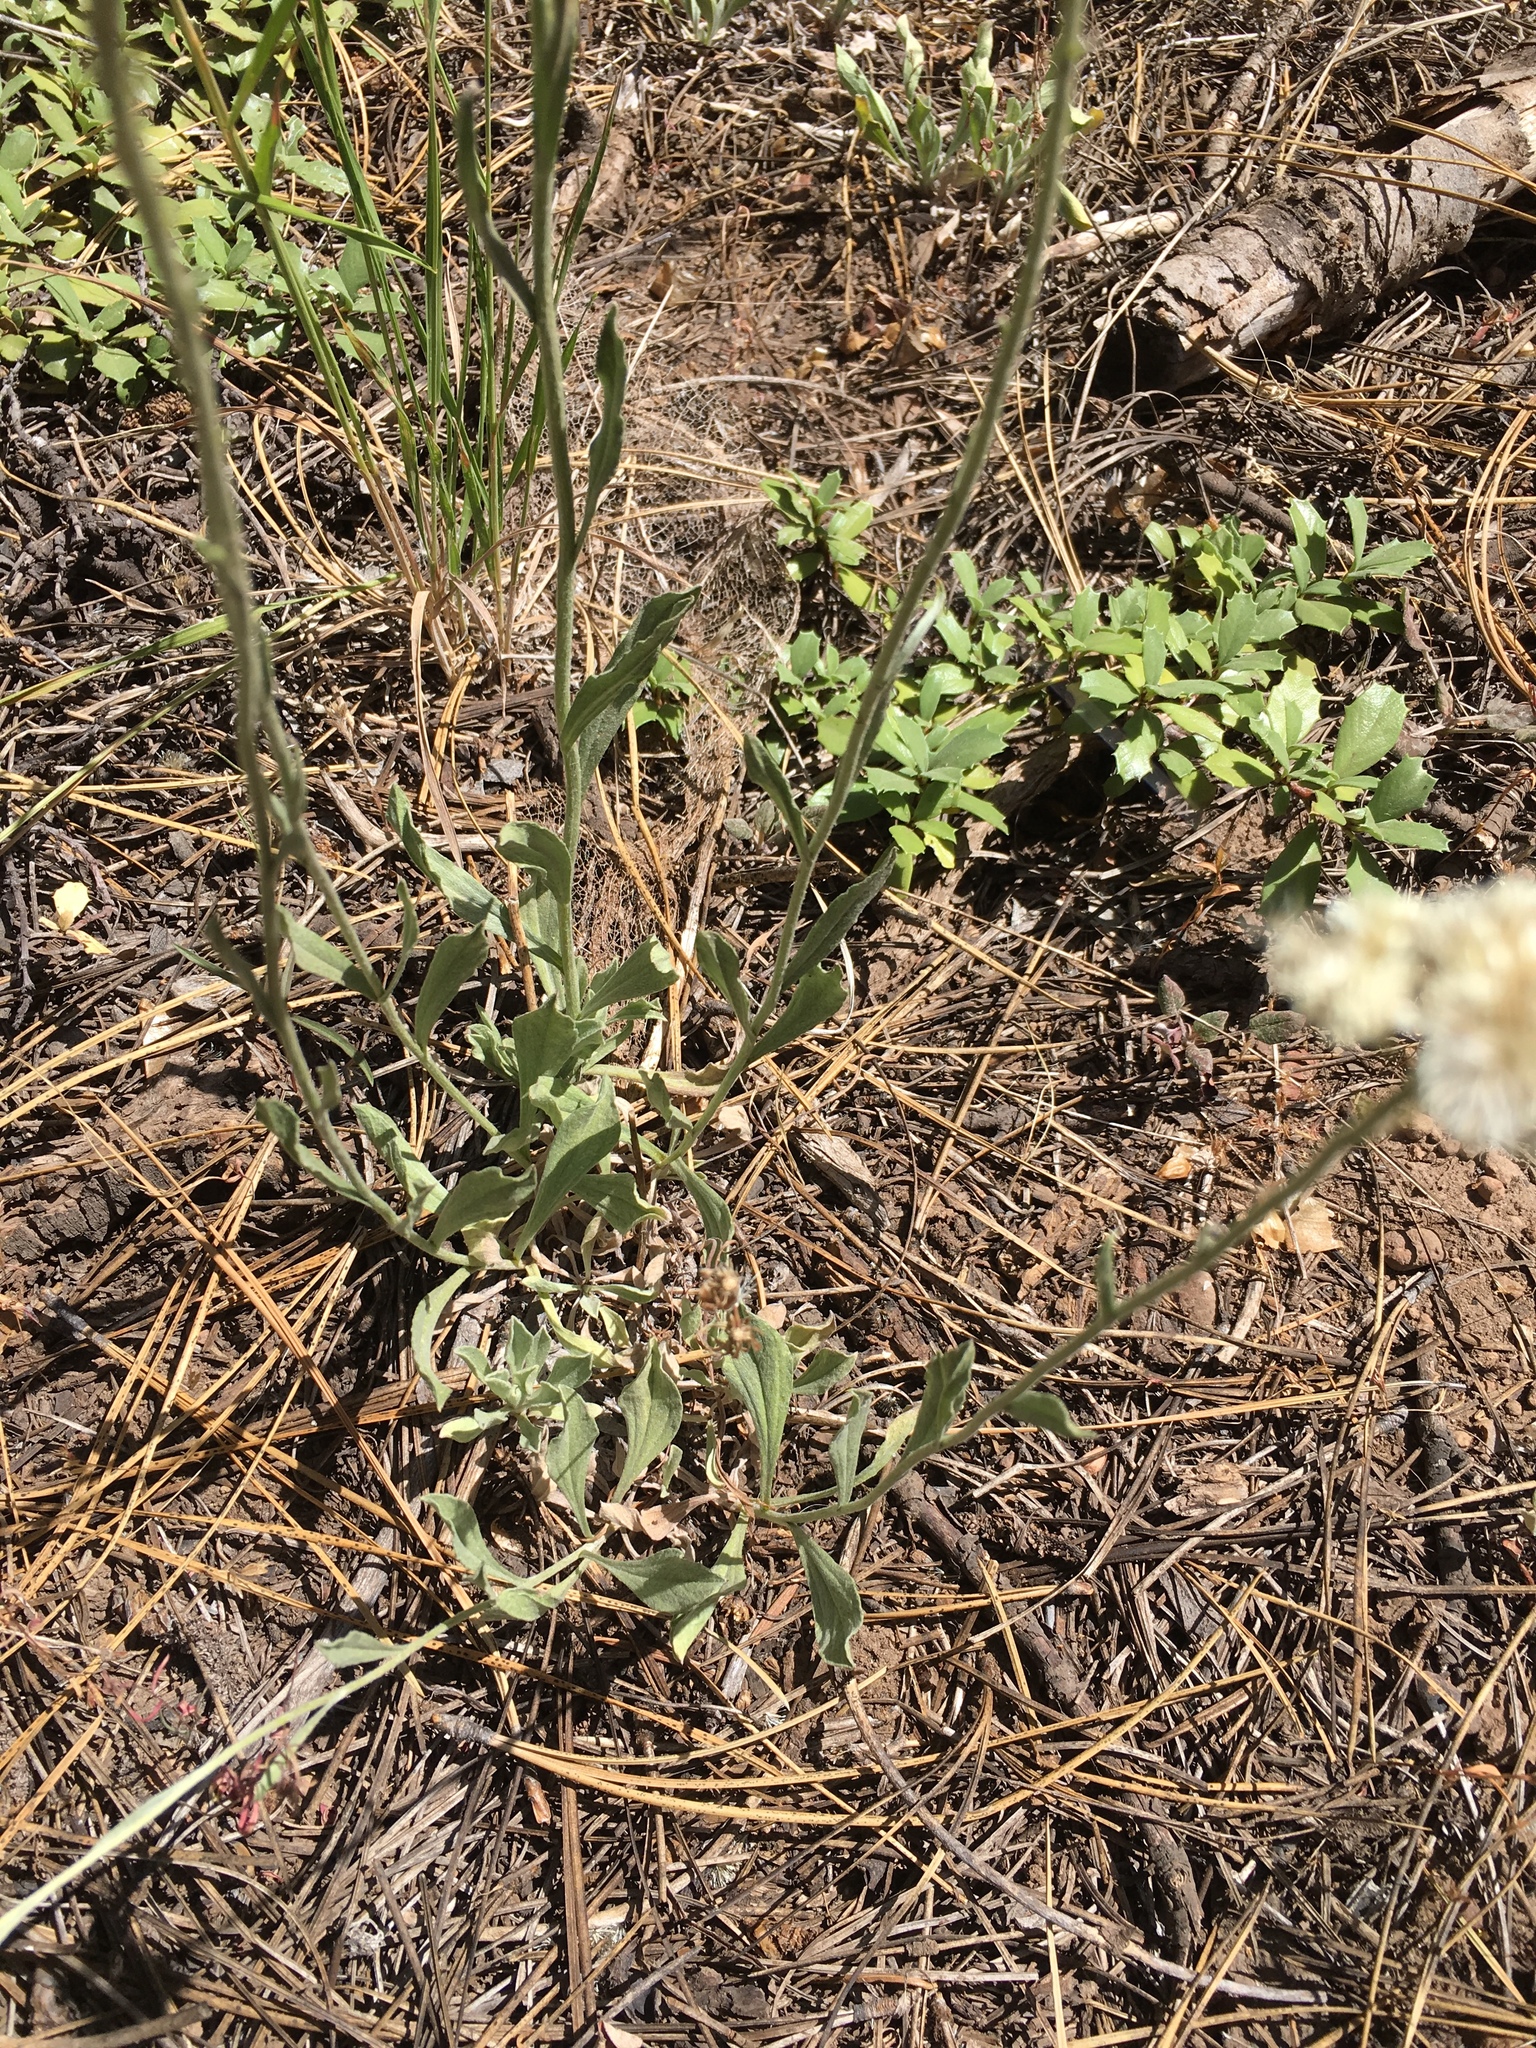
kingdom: Plantae
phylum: Tracheophyta
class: Magnoliopsida
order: Asterales
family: Asteraceae
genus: Antennaria
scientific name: Antennaria rosea
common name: Rosy pussytoes
